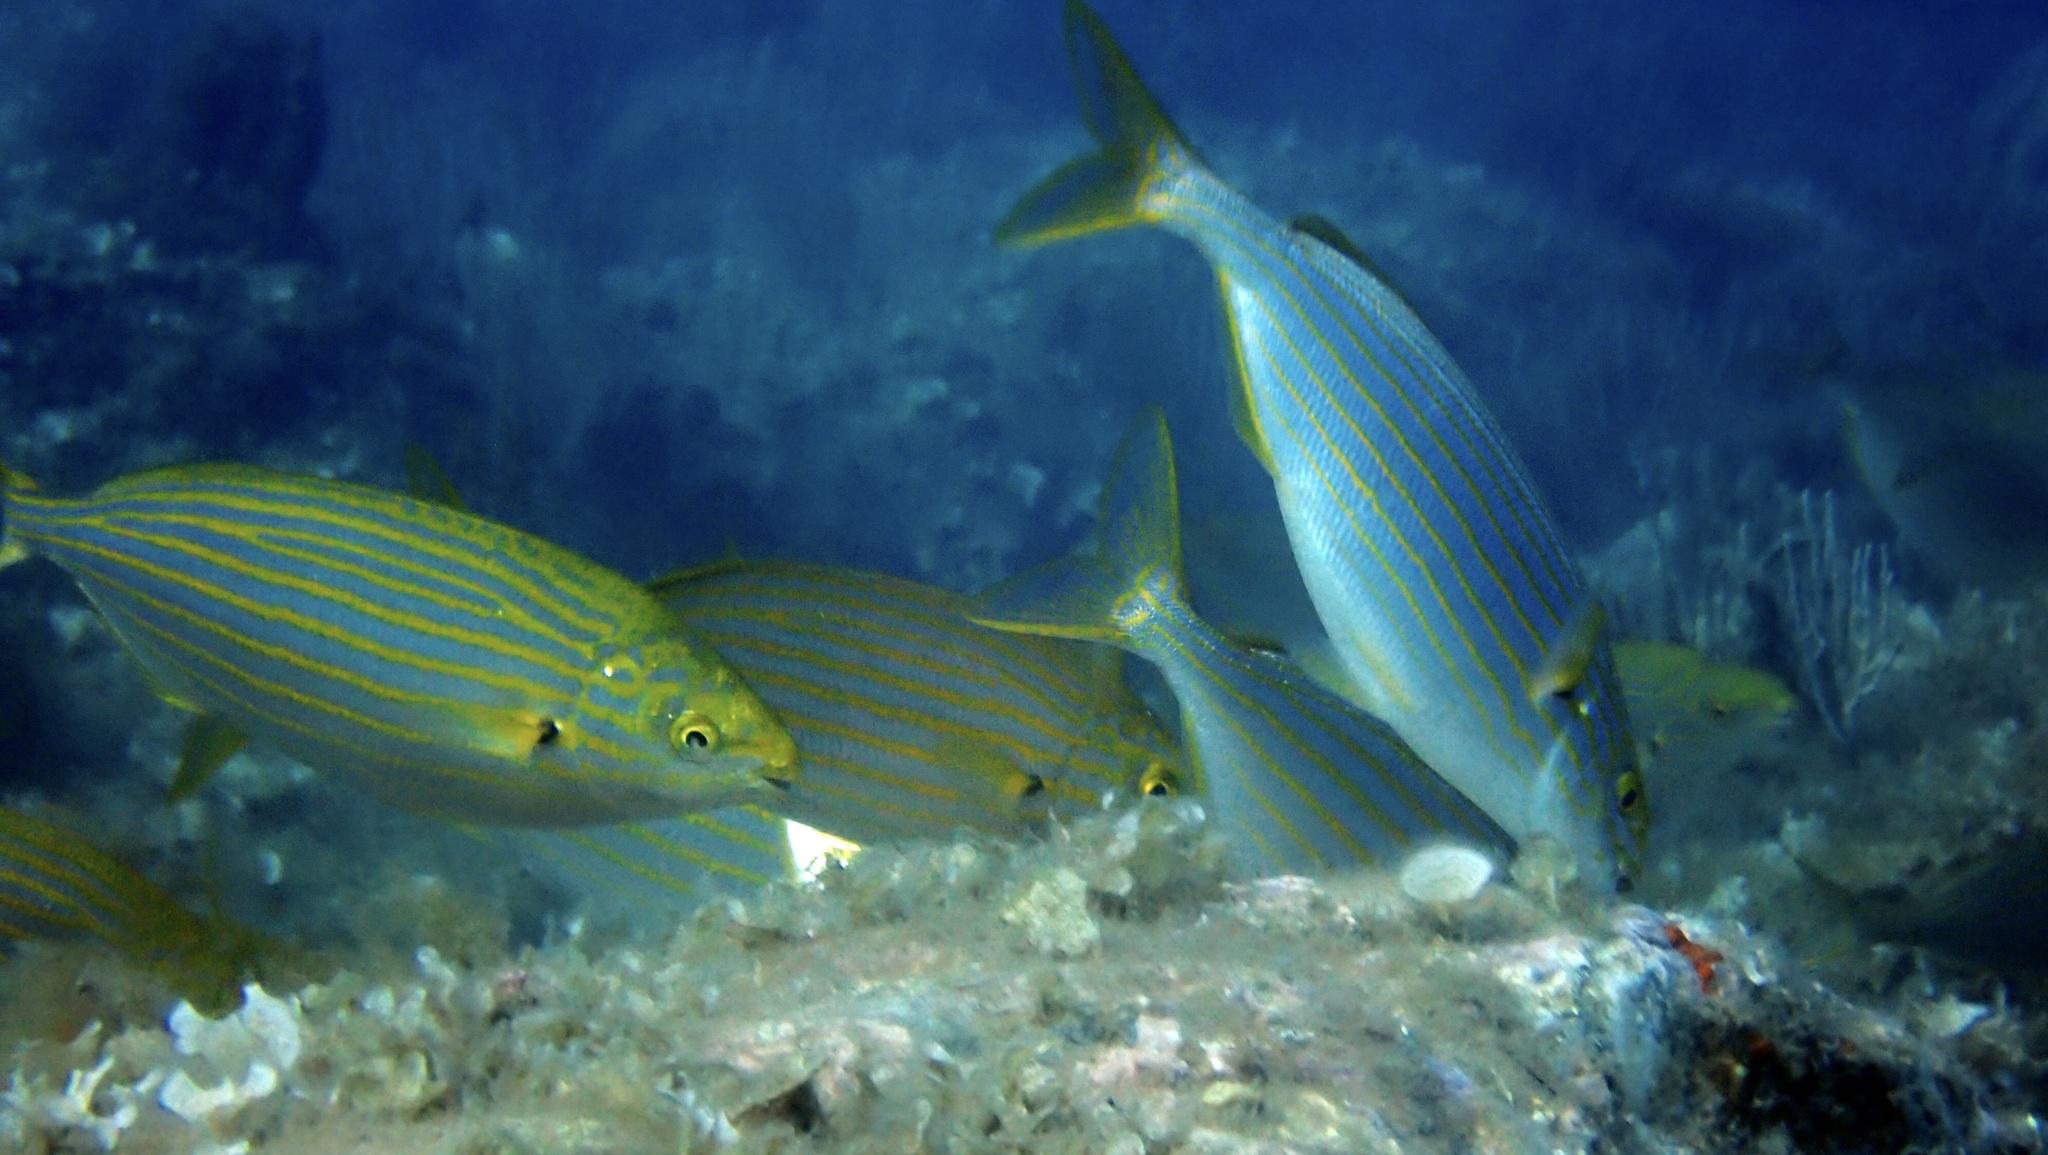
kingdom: Animalia
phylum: Chordata
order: Perciformes
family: Sparidae
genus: Sarpa
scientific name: Sarpa salpa
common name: Salema
